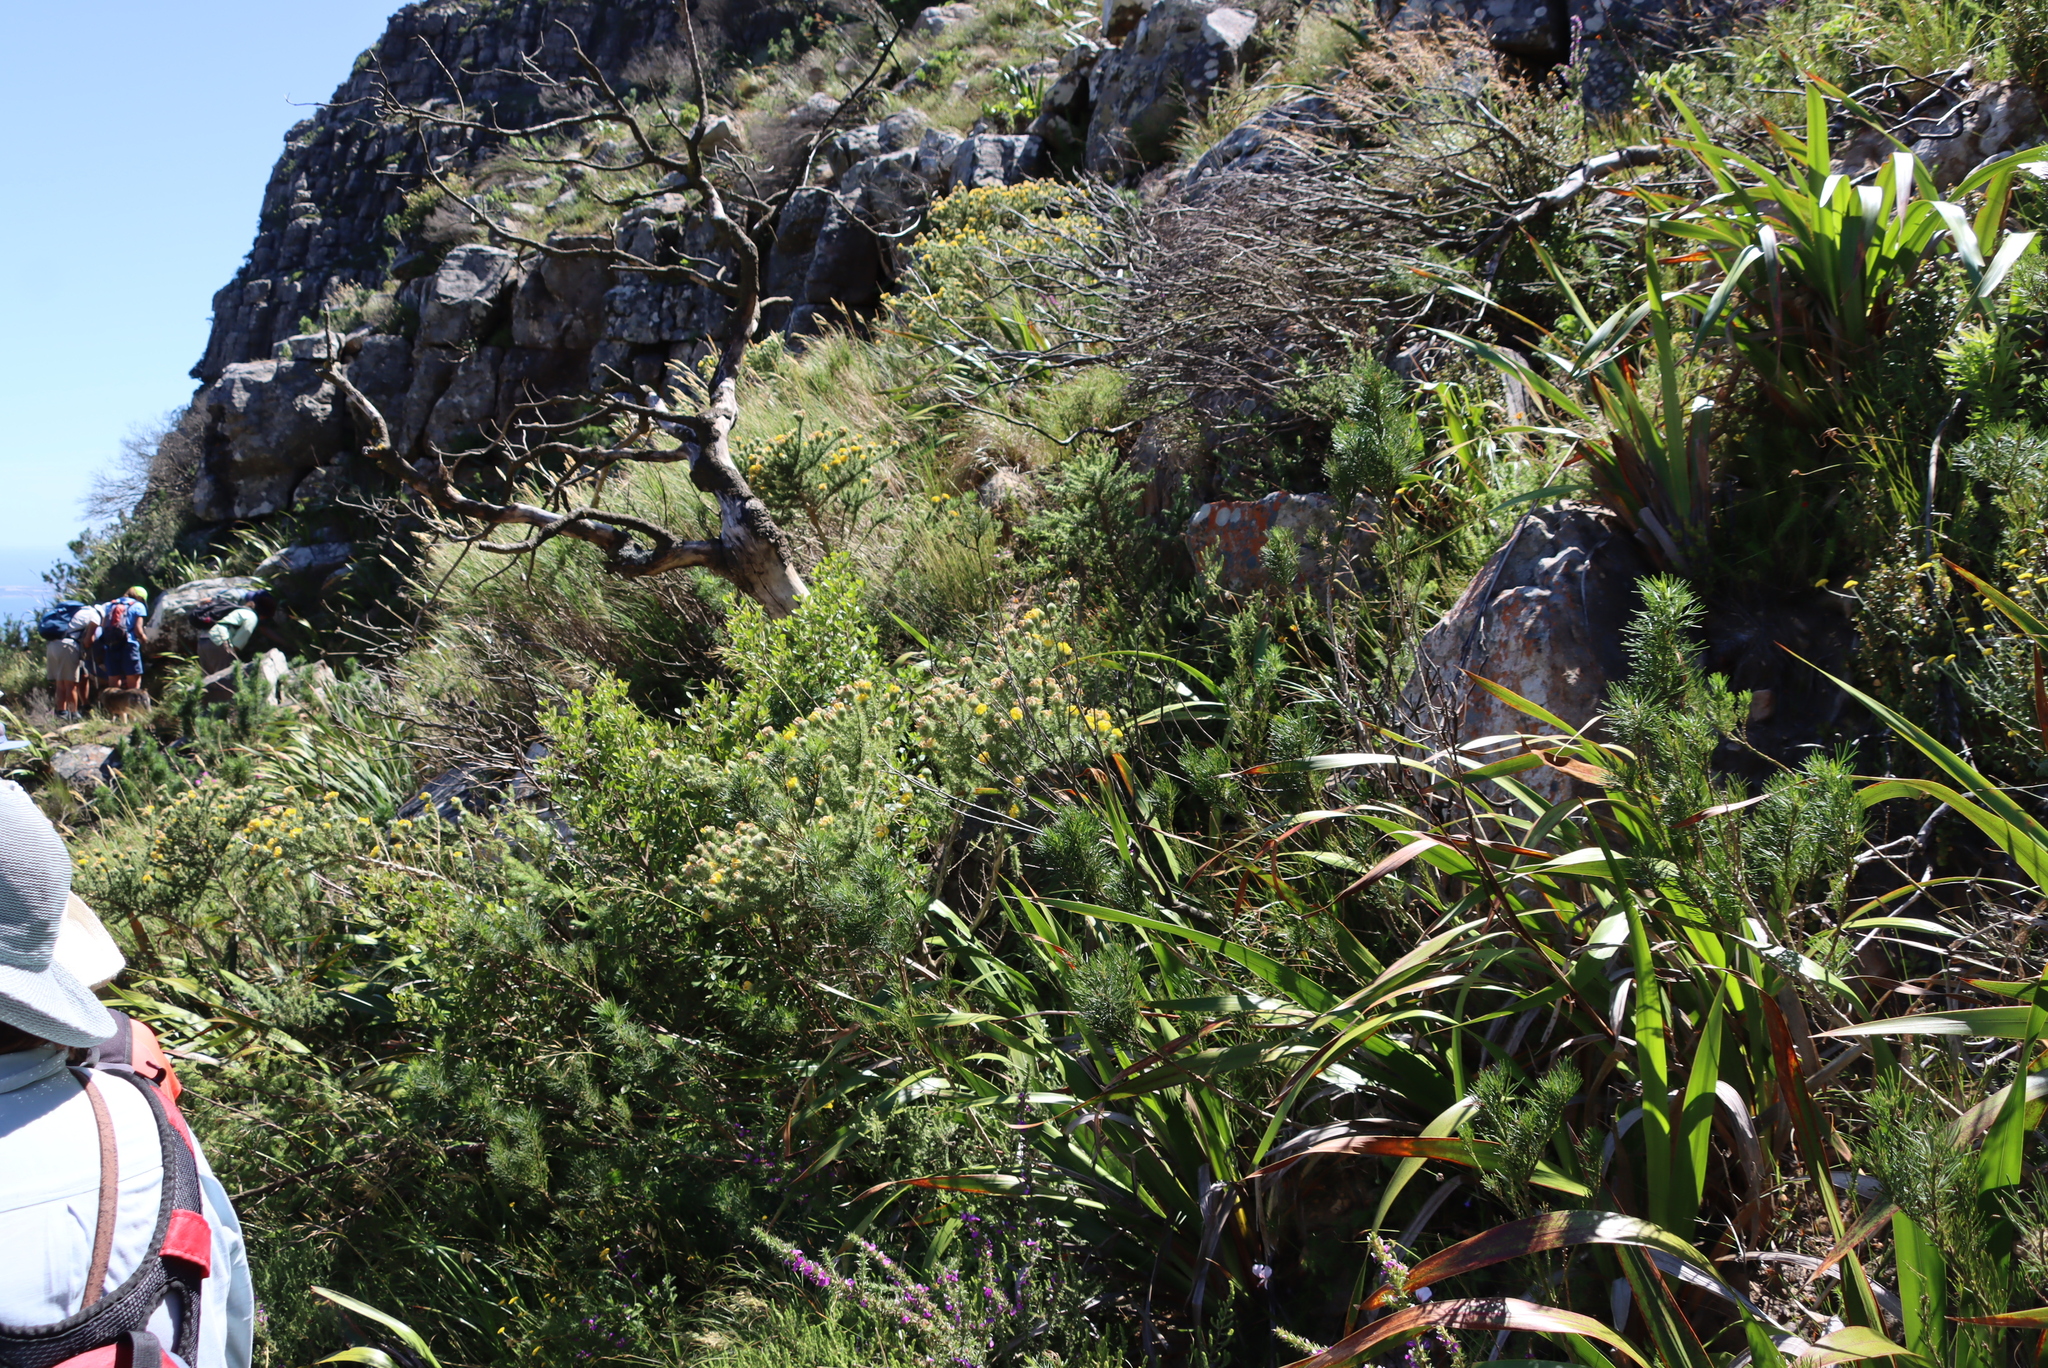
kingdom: Plantae
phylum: Tracheophyta
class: Magnoliopsida
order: Fabales
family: Fabaceae
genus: Aspalathus
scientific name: Aspalathus chenopoda
